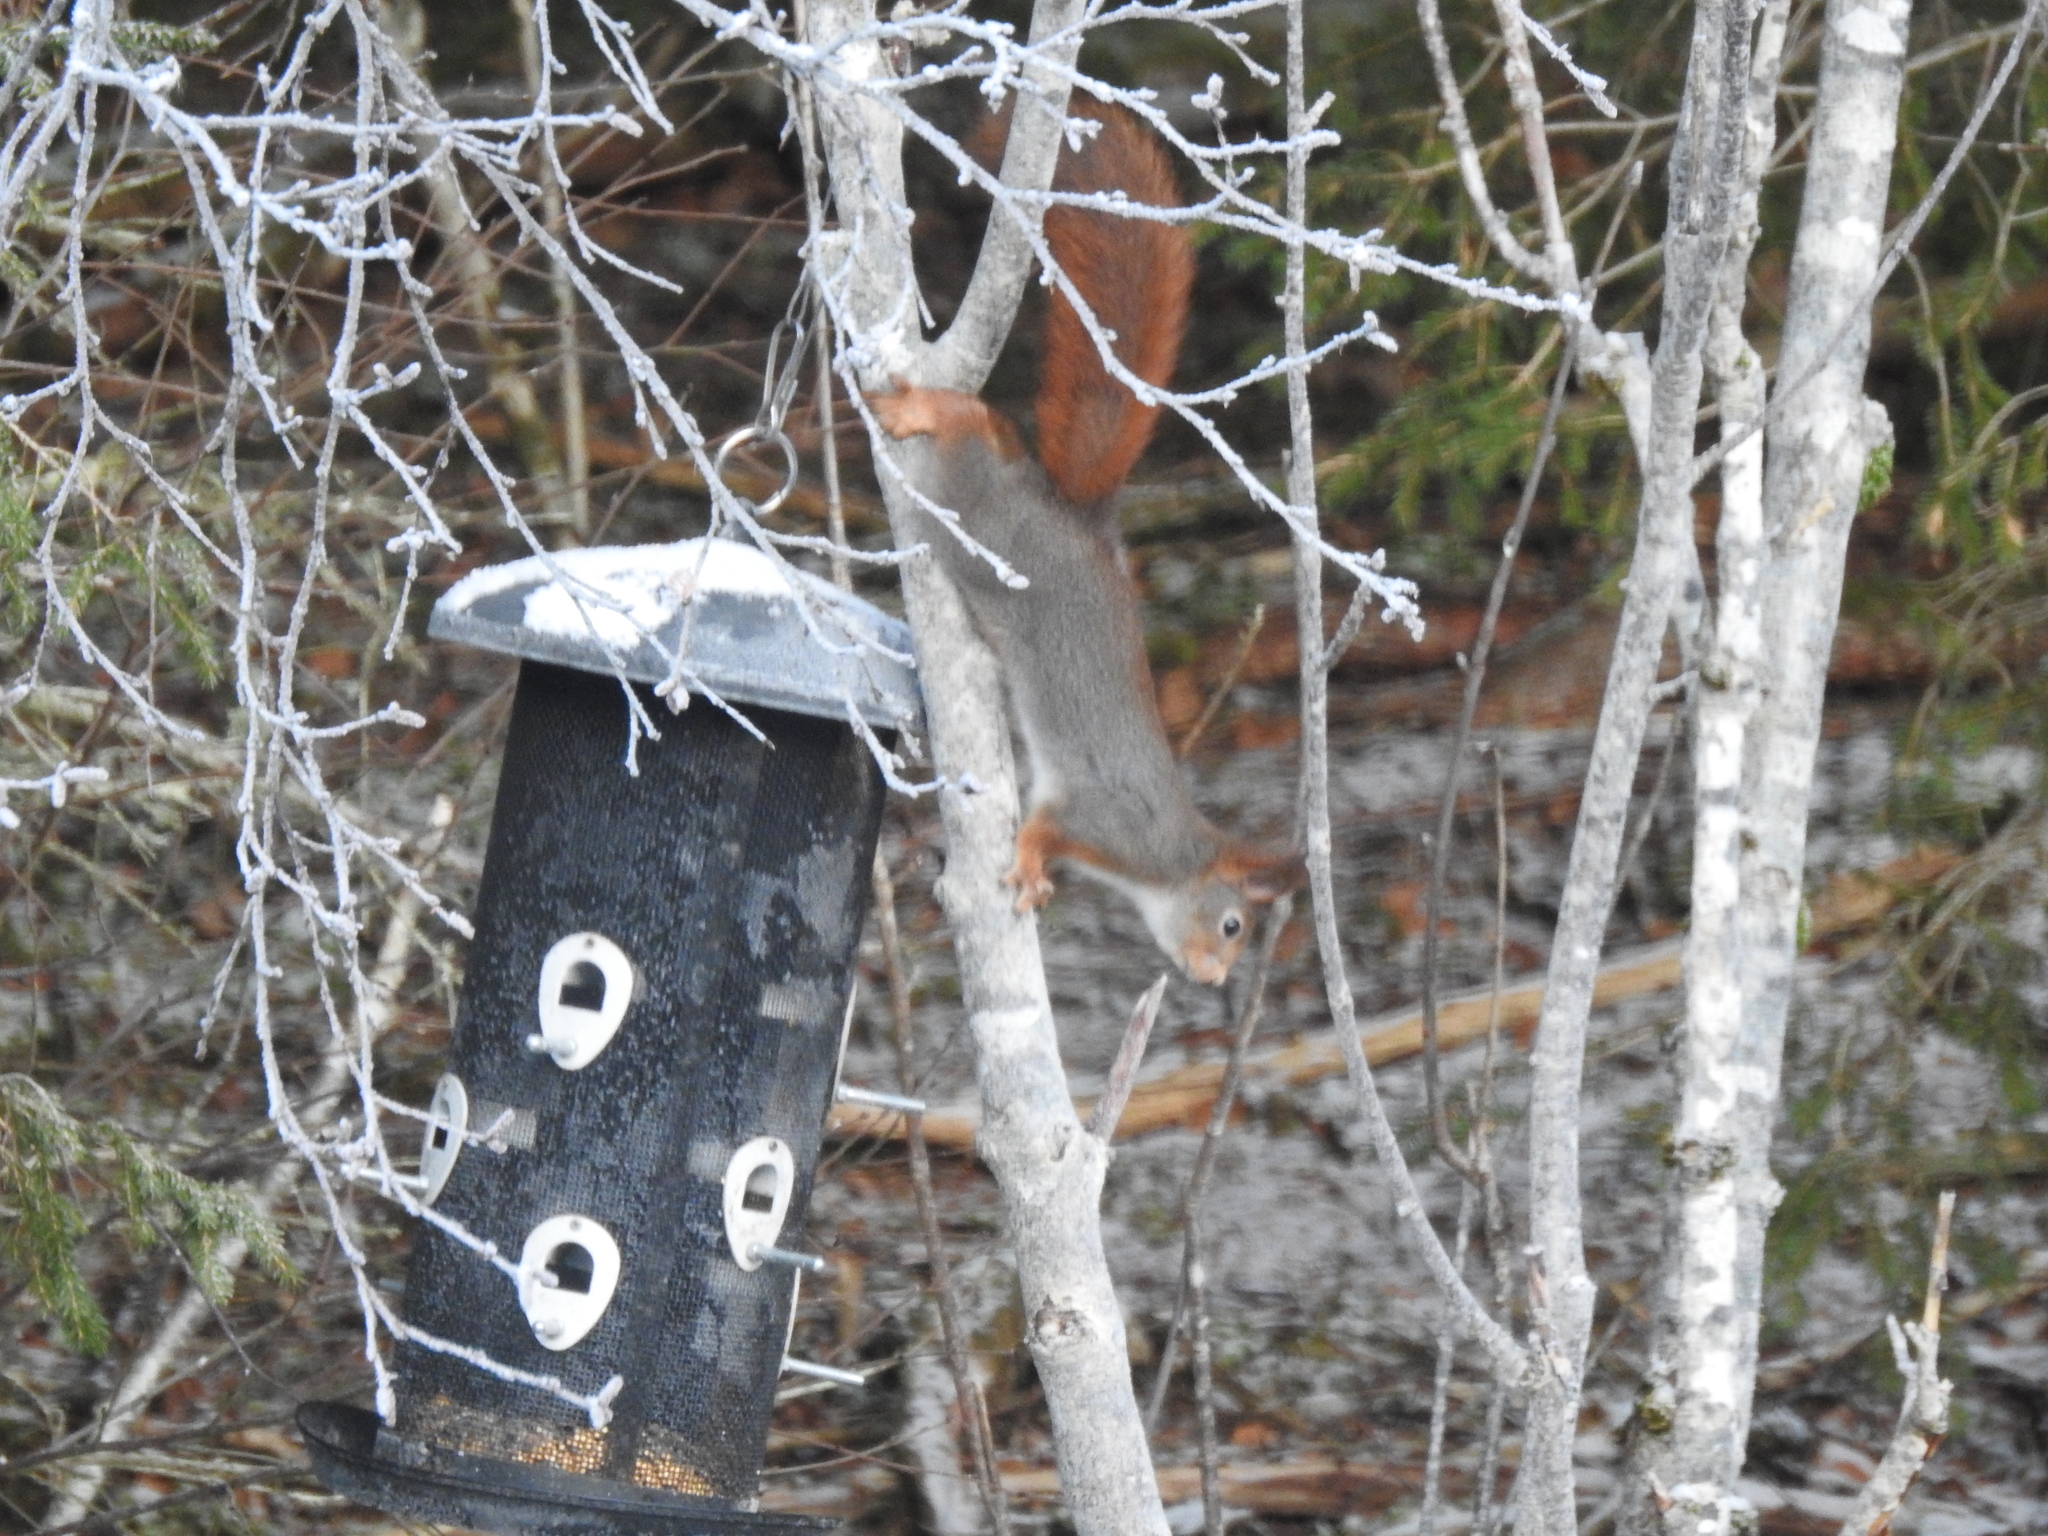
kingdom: Animalia
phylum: Chordata
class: Mammalia
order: Rodentia
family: Sciuridae
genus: Sciurus
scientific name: Sciurus vulgaris
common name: Eurasian red squirrel
